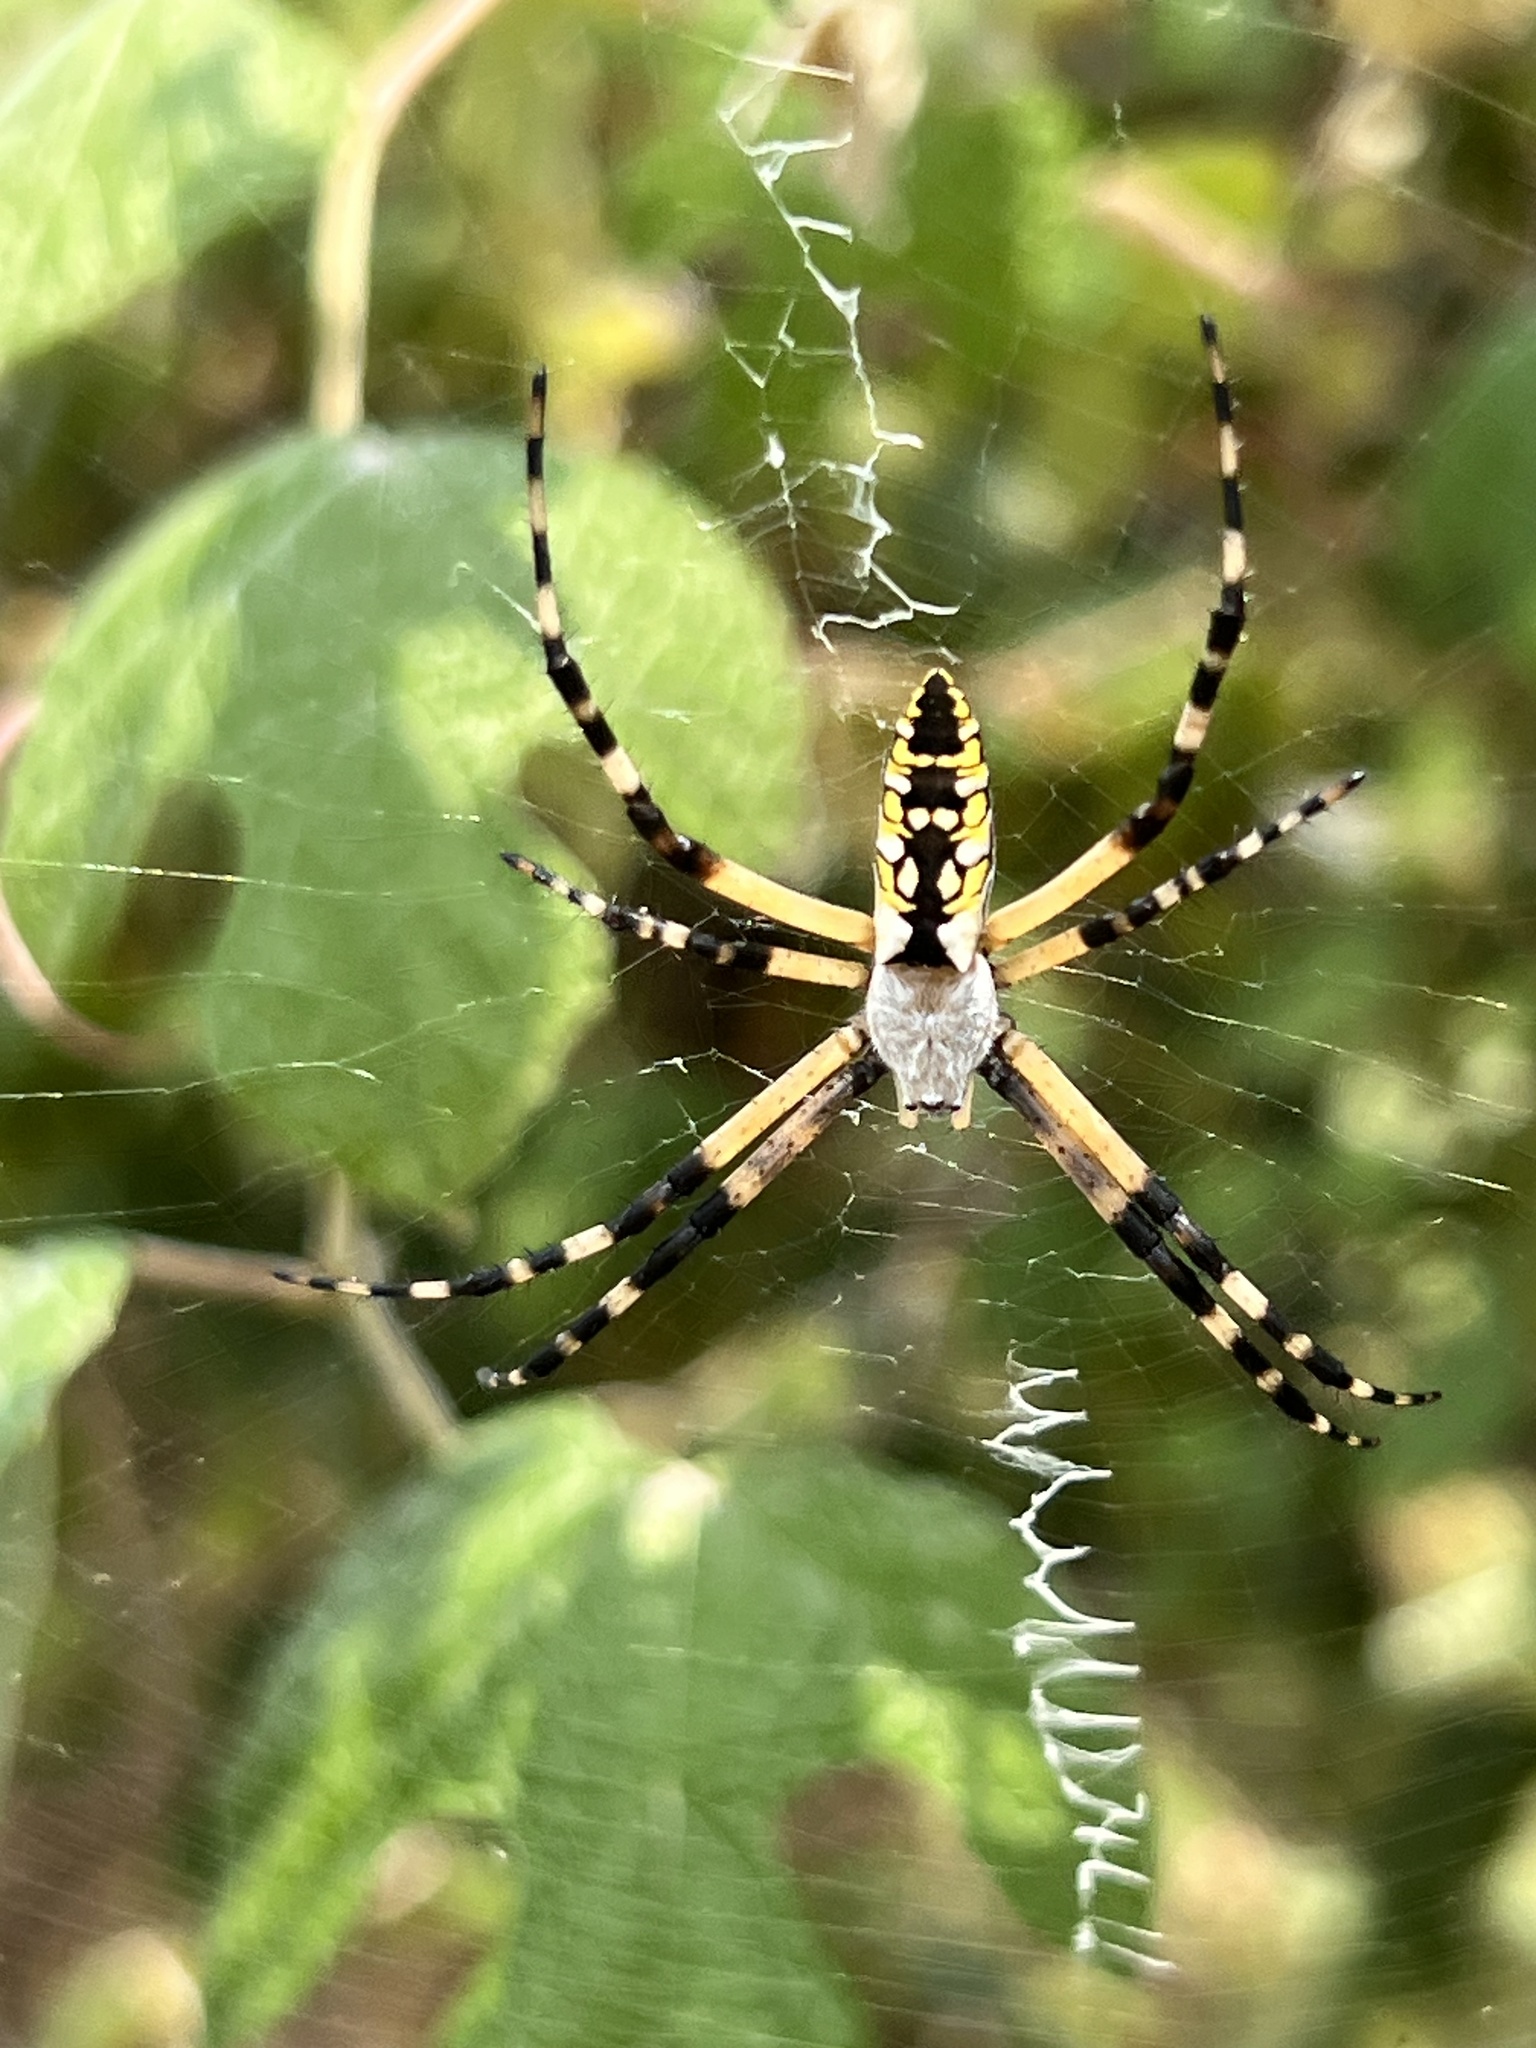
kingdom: Animalia
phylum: Arthropoda
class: Arachnida
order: Araneae
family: Araneidae
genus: Argiope
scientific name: Argiope aurantia
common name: Orb weavers
